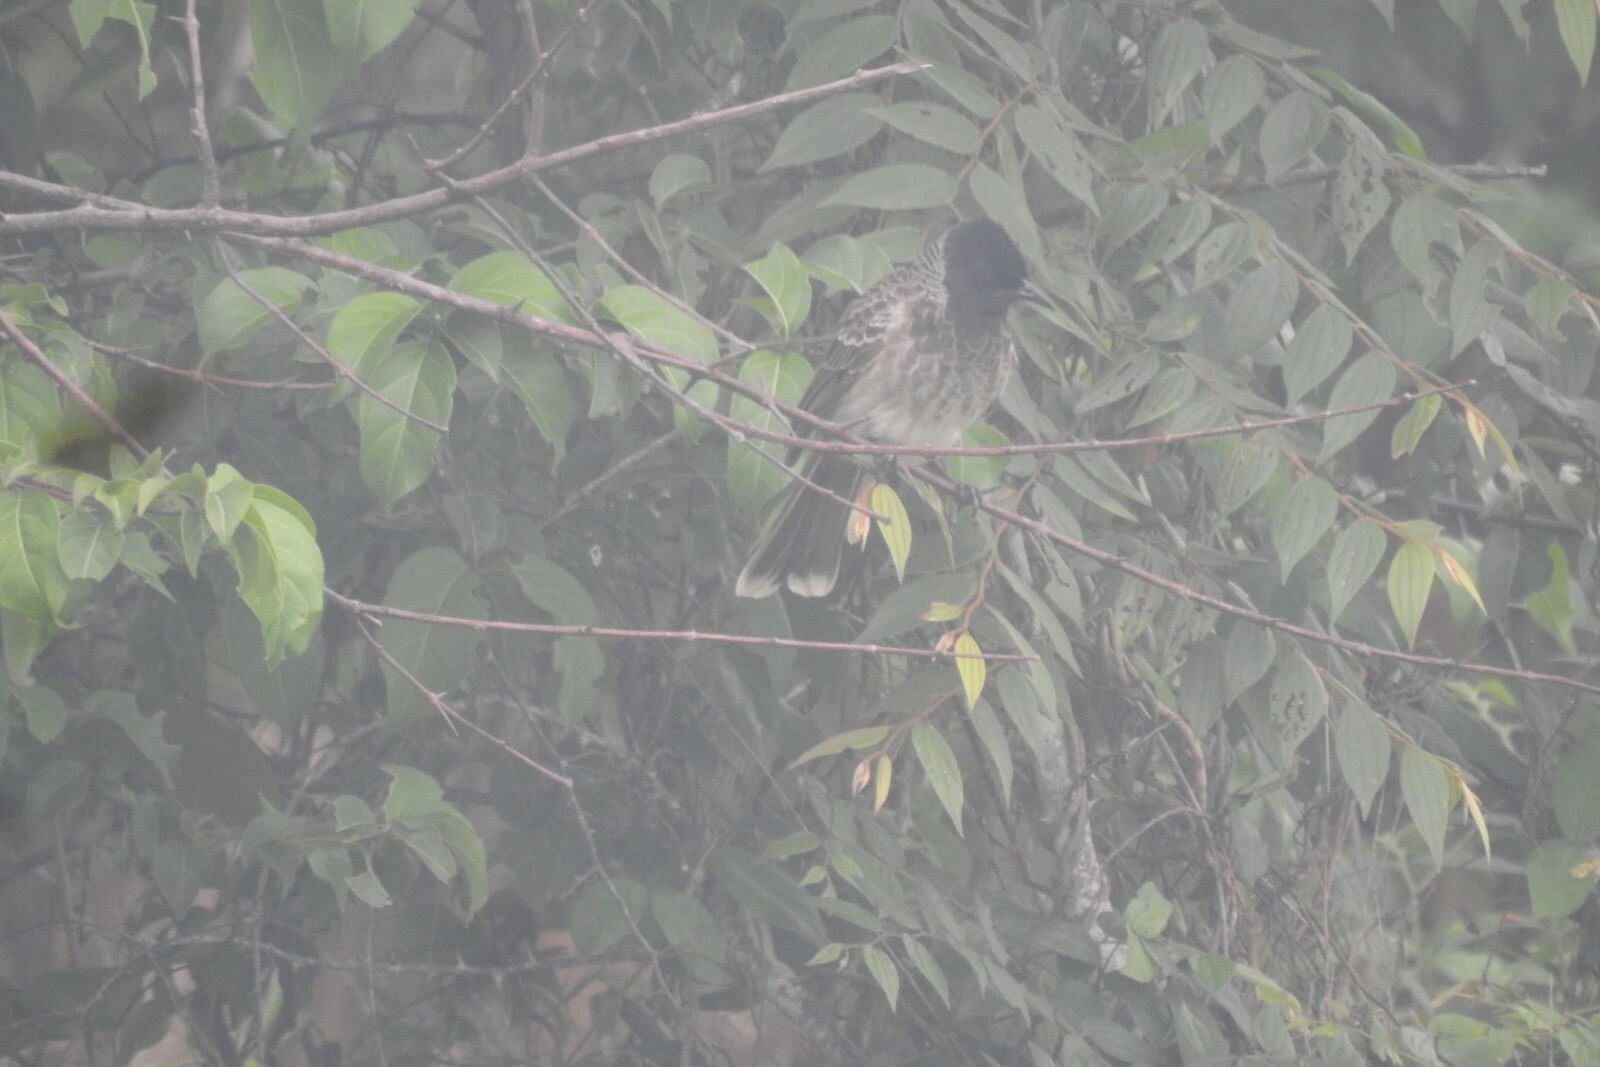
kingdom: Animalia
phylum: Chordata
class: Aves
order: Passeriformes
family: Pycnonotidae
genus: Pycnonotus
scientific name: Pycnonotus cafer
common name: Red-vented bulbul
